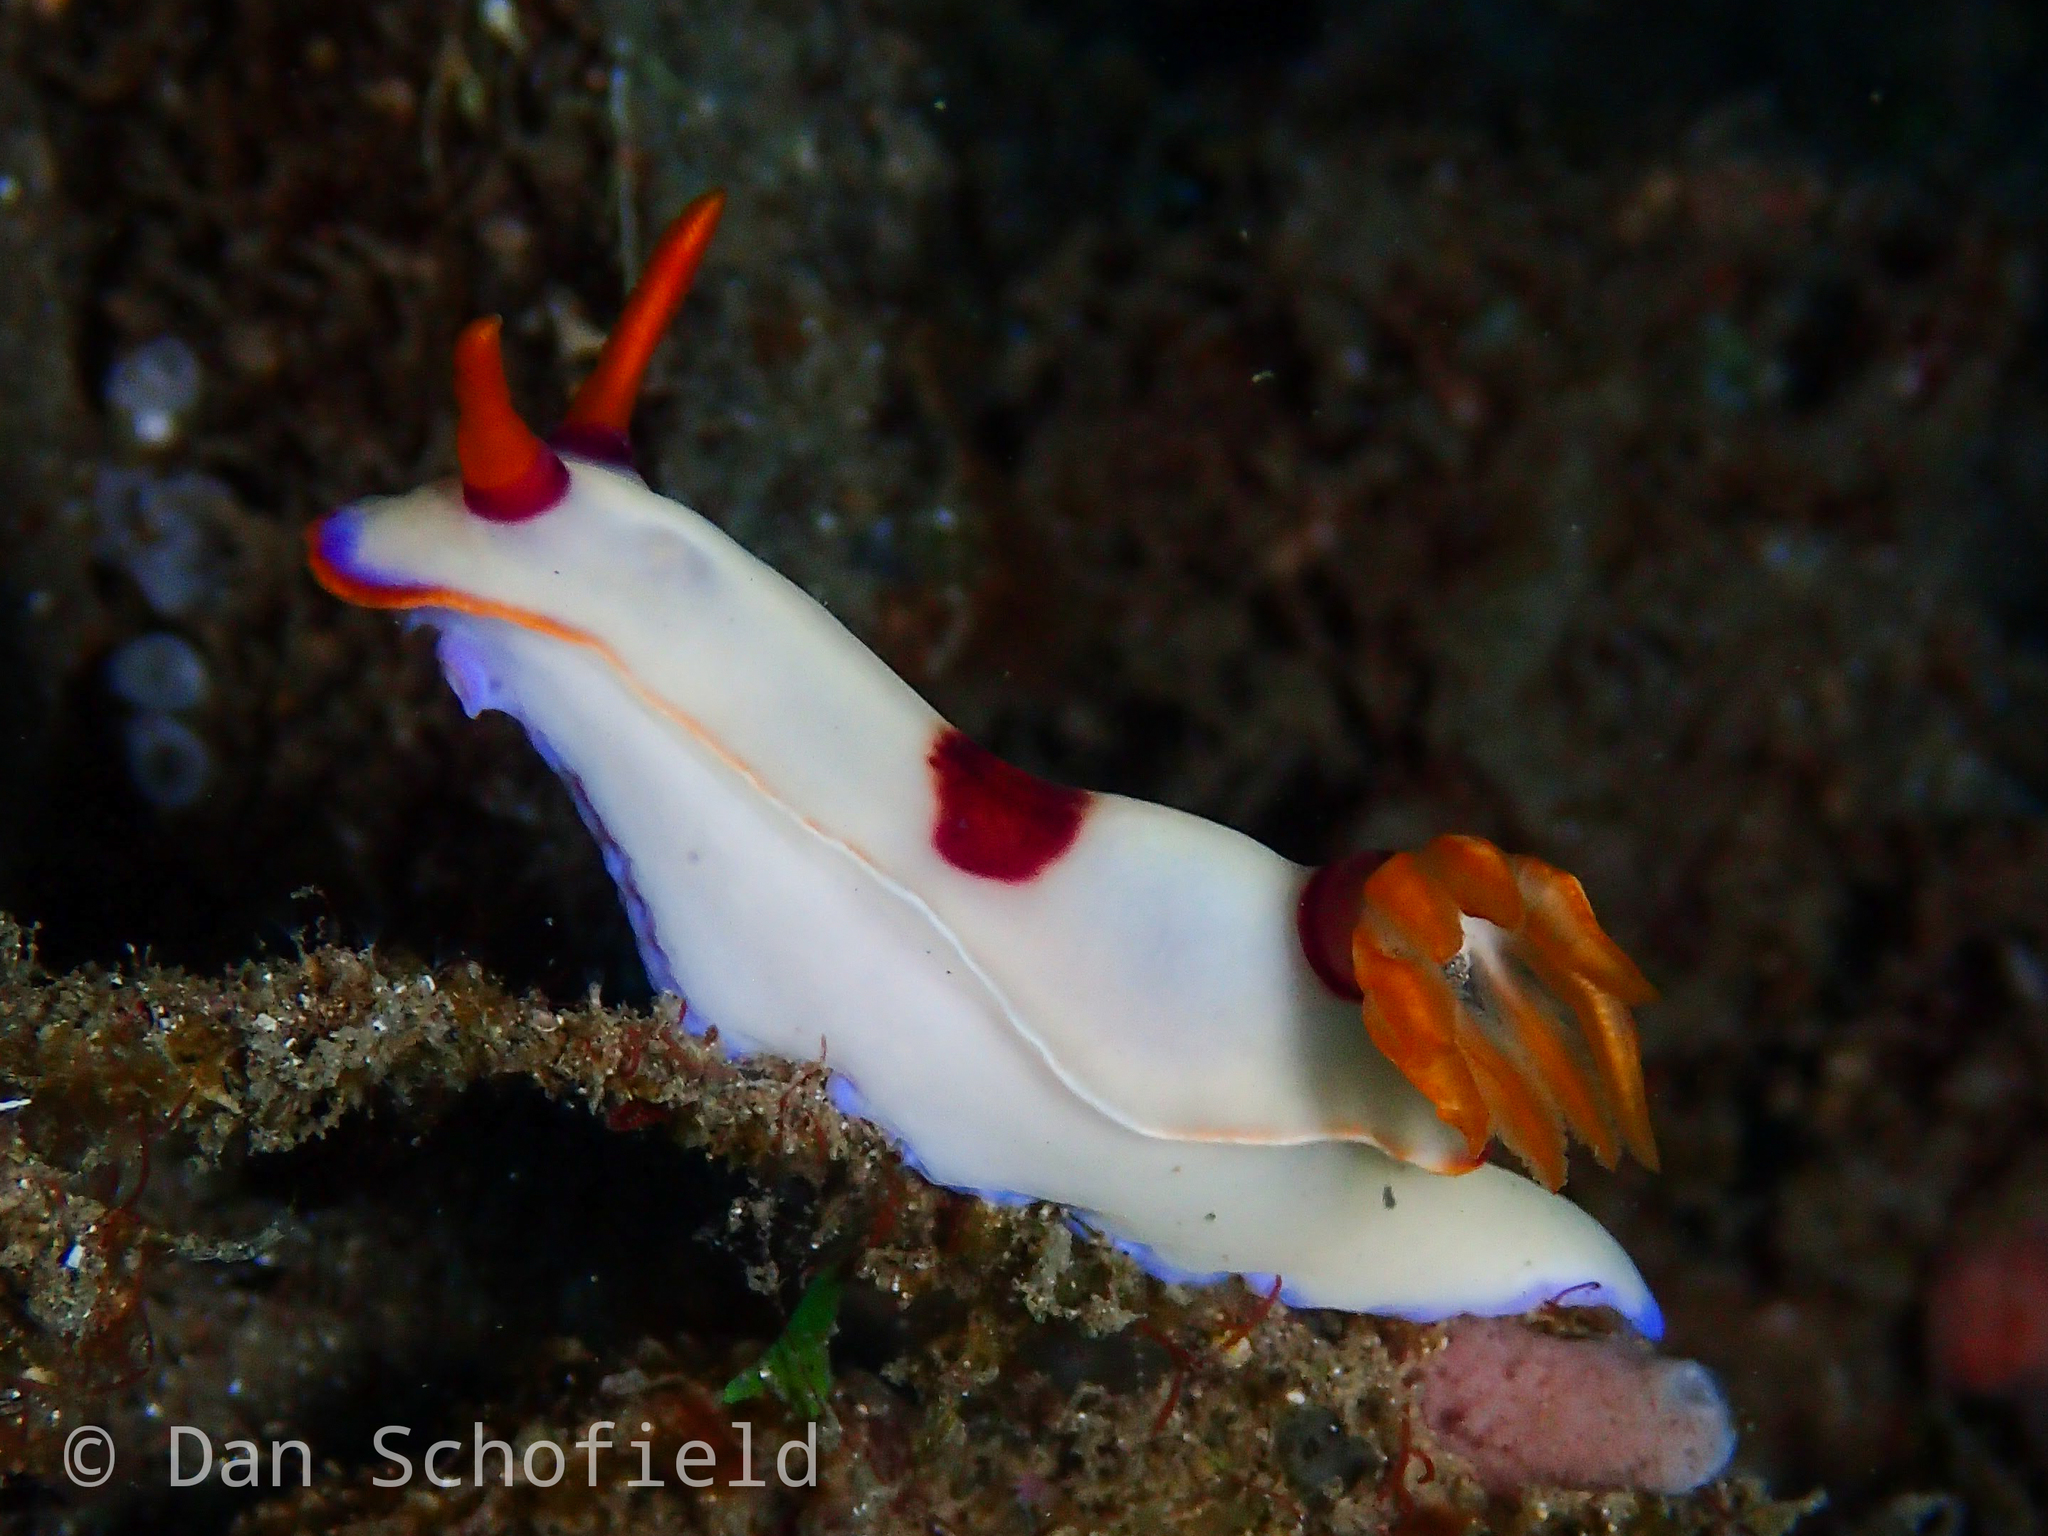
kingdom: Animalia
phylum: Mollusca
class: Gastropoda
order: Nudibranchia
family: Chromodorididae
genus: Hypselodoris
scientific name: Hypselodoris iba
